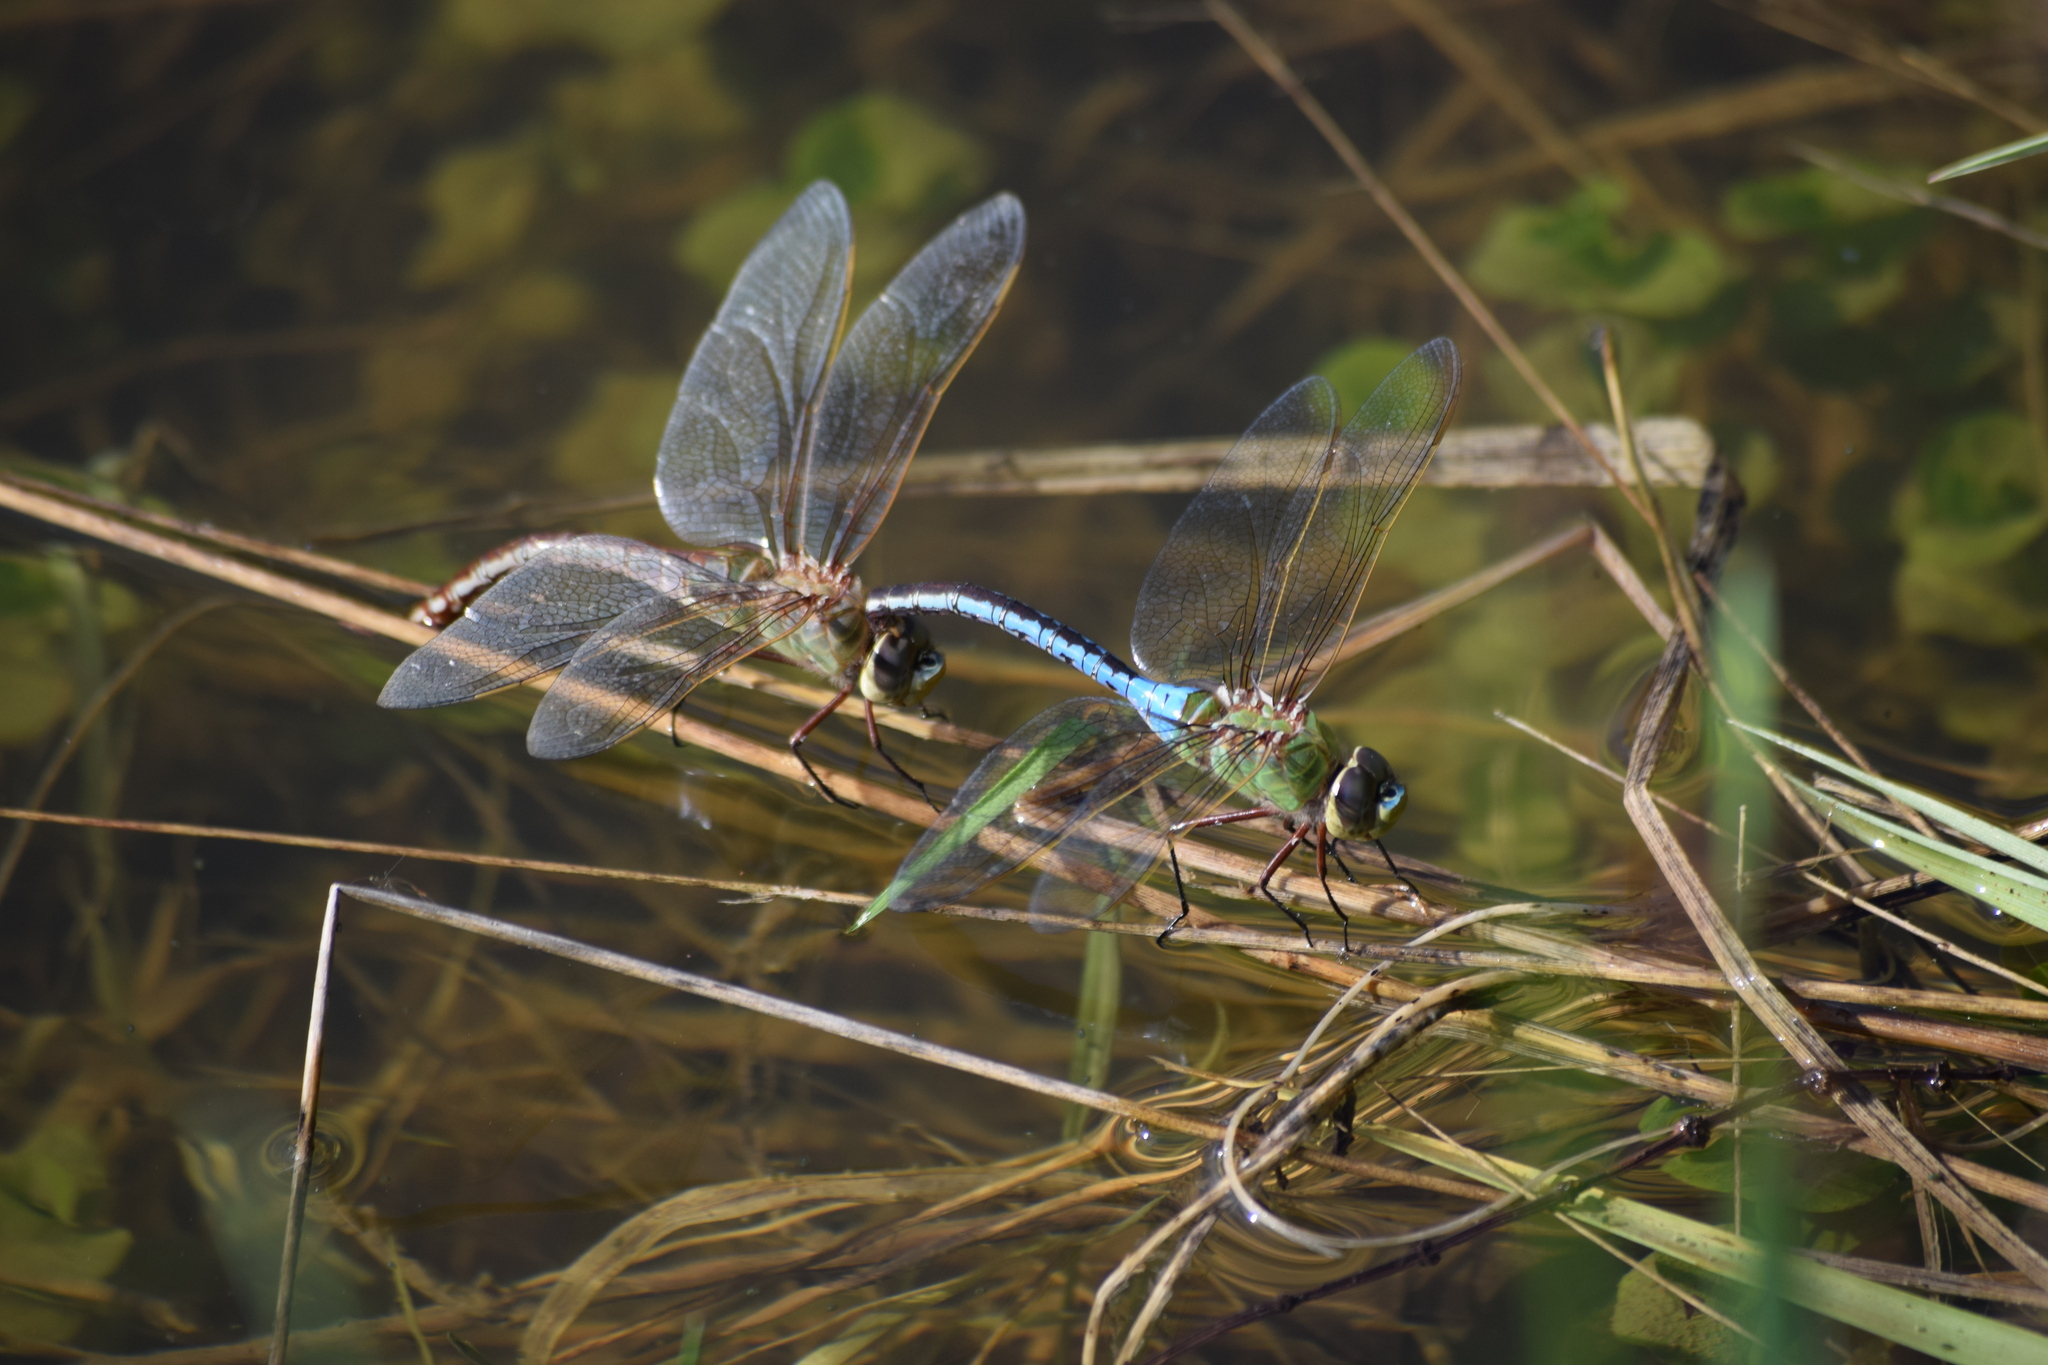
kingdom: Animalia
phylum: Arthropoda
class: Insecta
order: Odonata
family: Aeshnidae
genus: Anax
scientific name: Anax junius
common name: Common green darner
